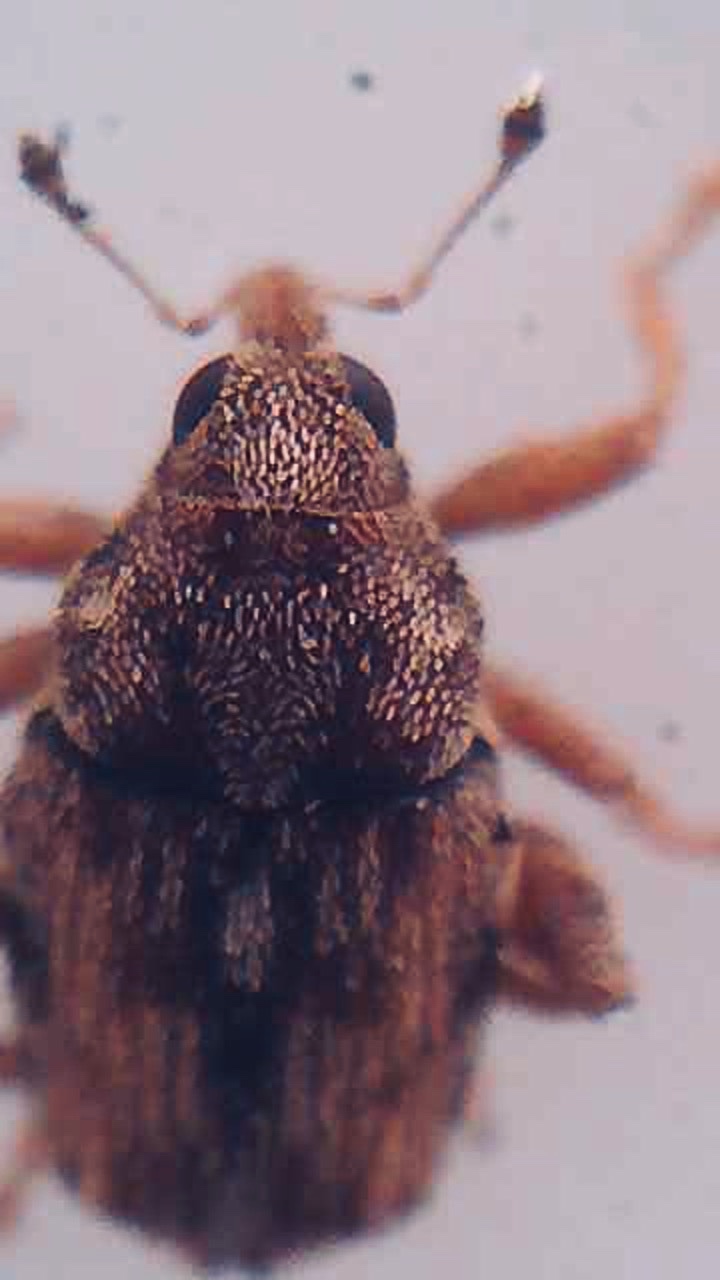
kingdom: Animalia
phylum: Arthropoda
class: Insecta
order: Coleoptera
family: Curculionidae
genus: Hypurus
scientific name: Hypurus bertrandi
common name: Weevil
